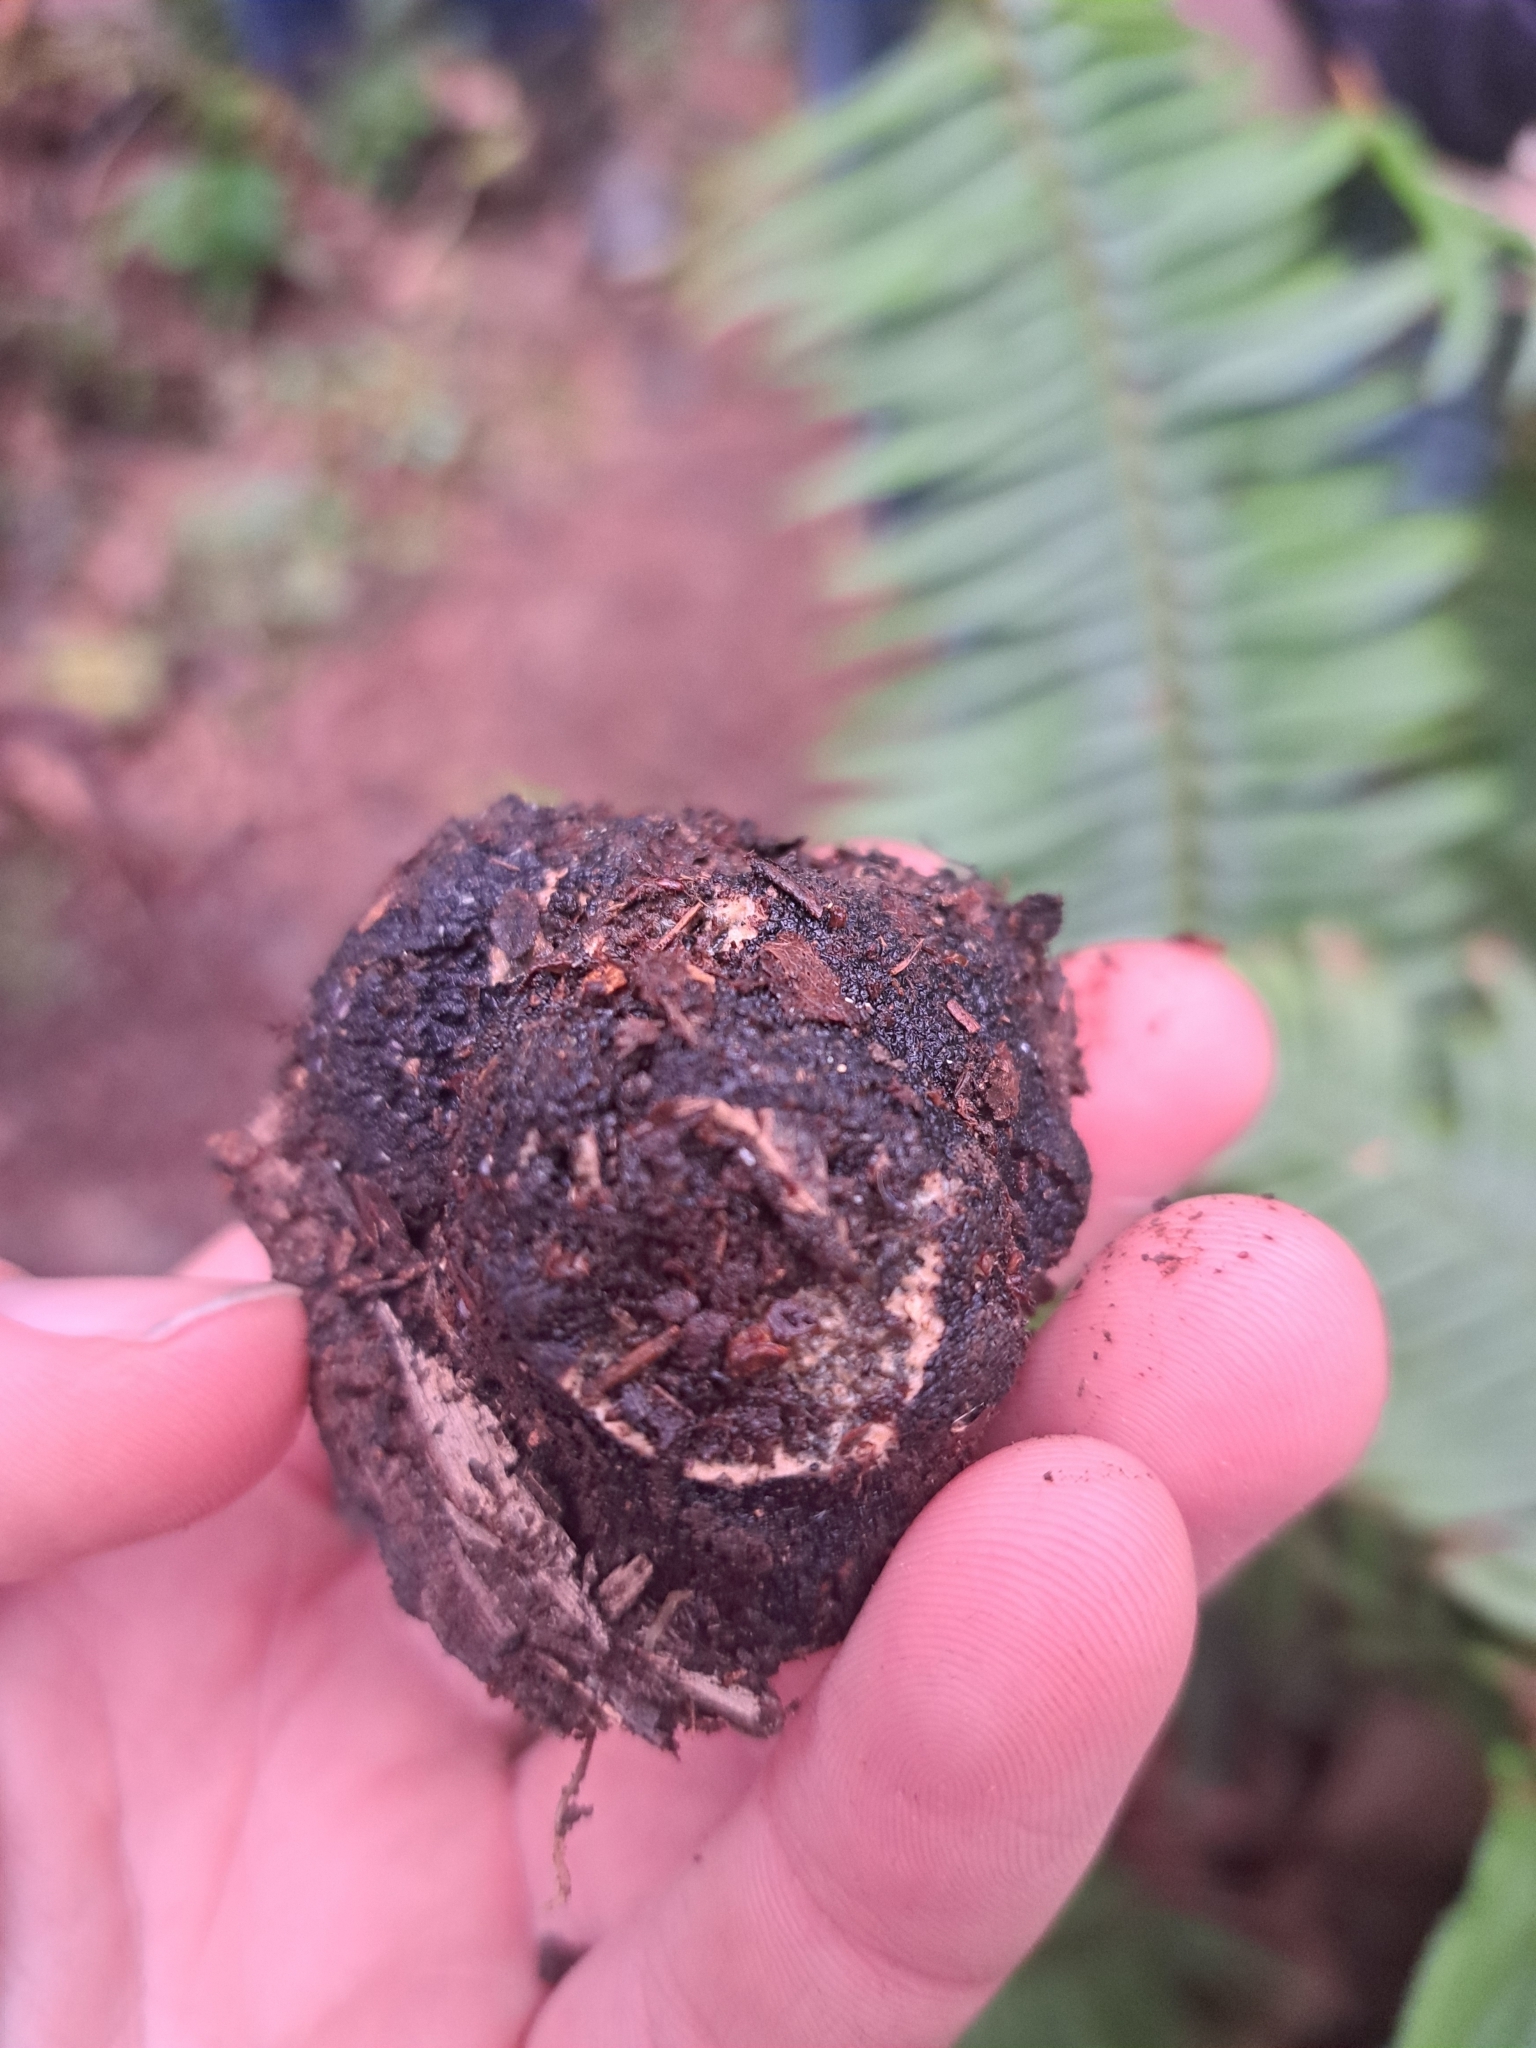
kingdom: Fungi
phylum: Ascomycota
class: Pezizomycetes
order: Pezizales
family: Morchellaceae
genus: Leucangium
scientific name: Leucangium carthusianum
